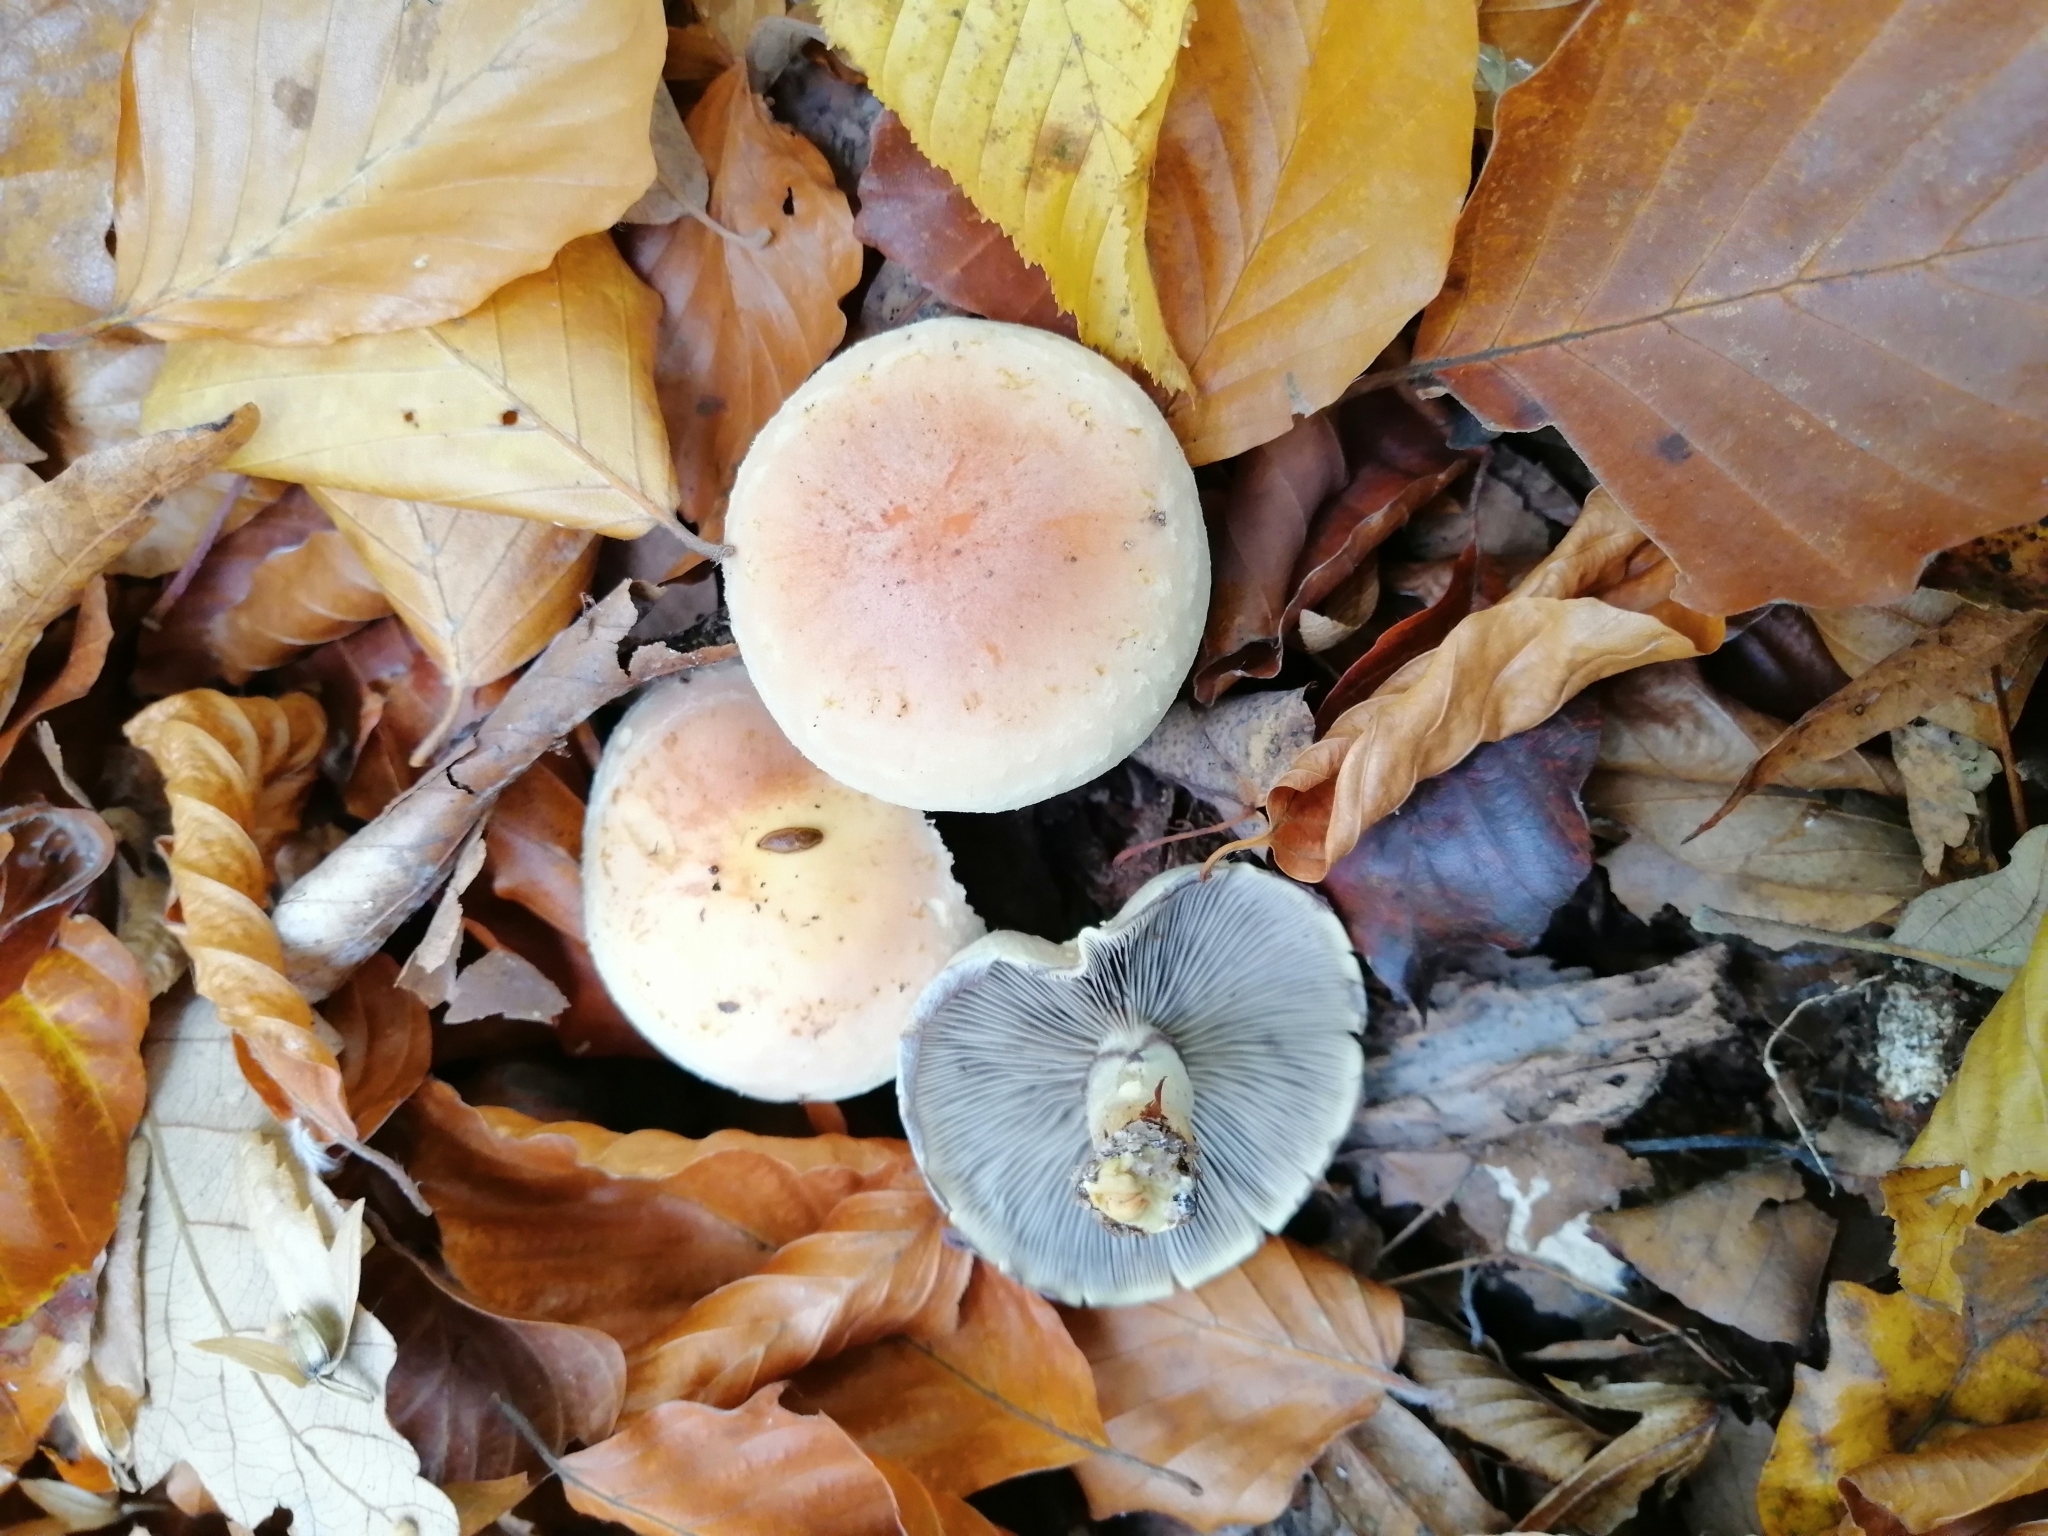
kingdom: Fungi
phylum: Basidiomycota
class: Agaricomycetes
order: Agaricales
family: Strophariaceae
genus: Hypholoma
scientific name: Hypholoma lateritium
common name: Brick caps
